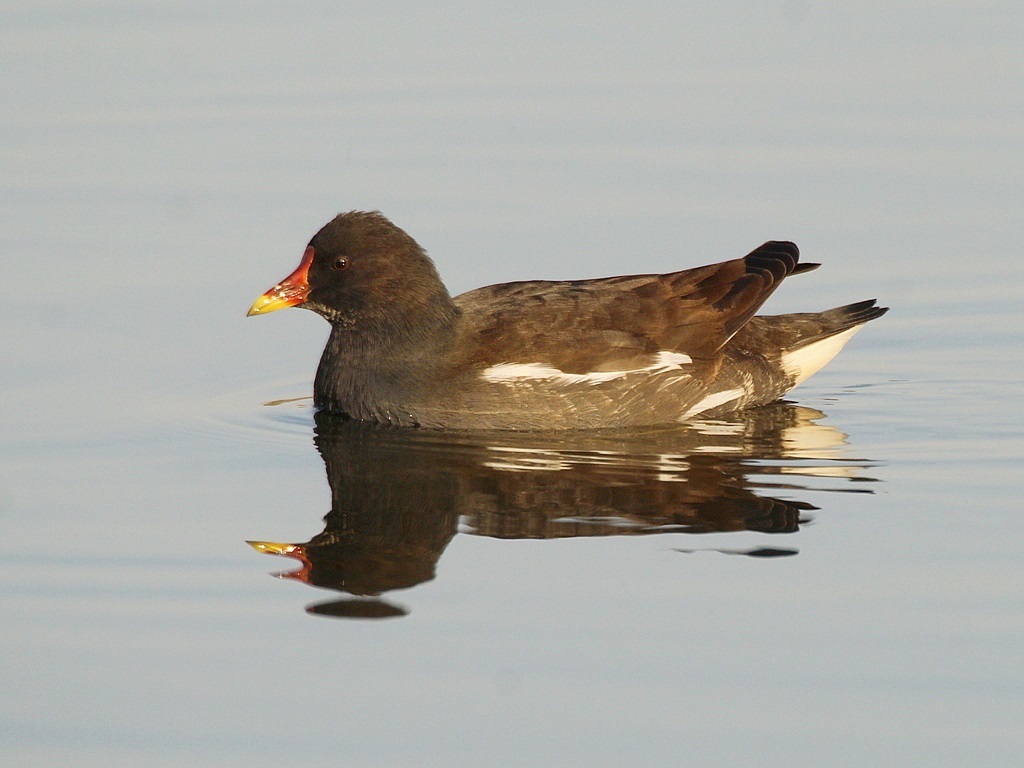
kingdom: Animalia
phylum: Chordata
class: Aves
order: Gruiformes
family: Rallidae
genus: Gallinula
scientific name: Gallinula chloropus
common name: Common moorhen
